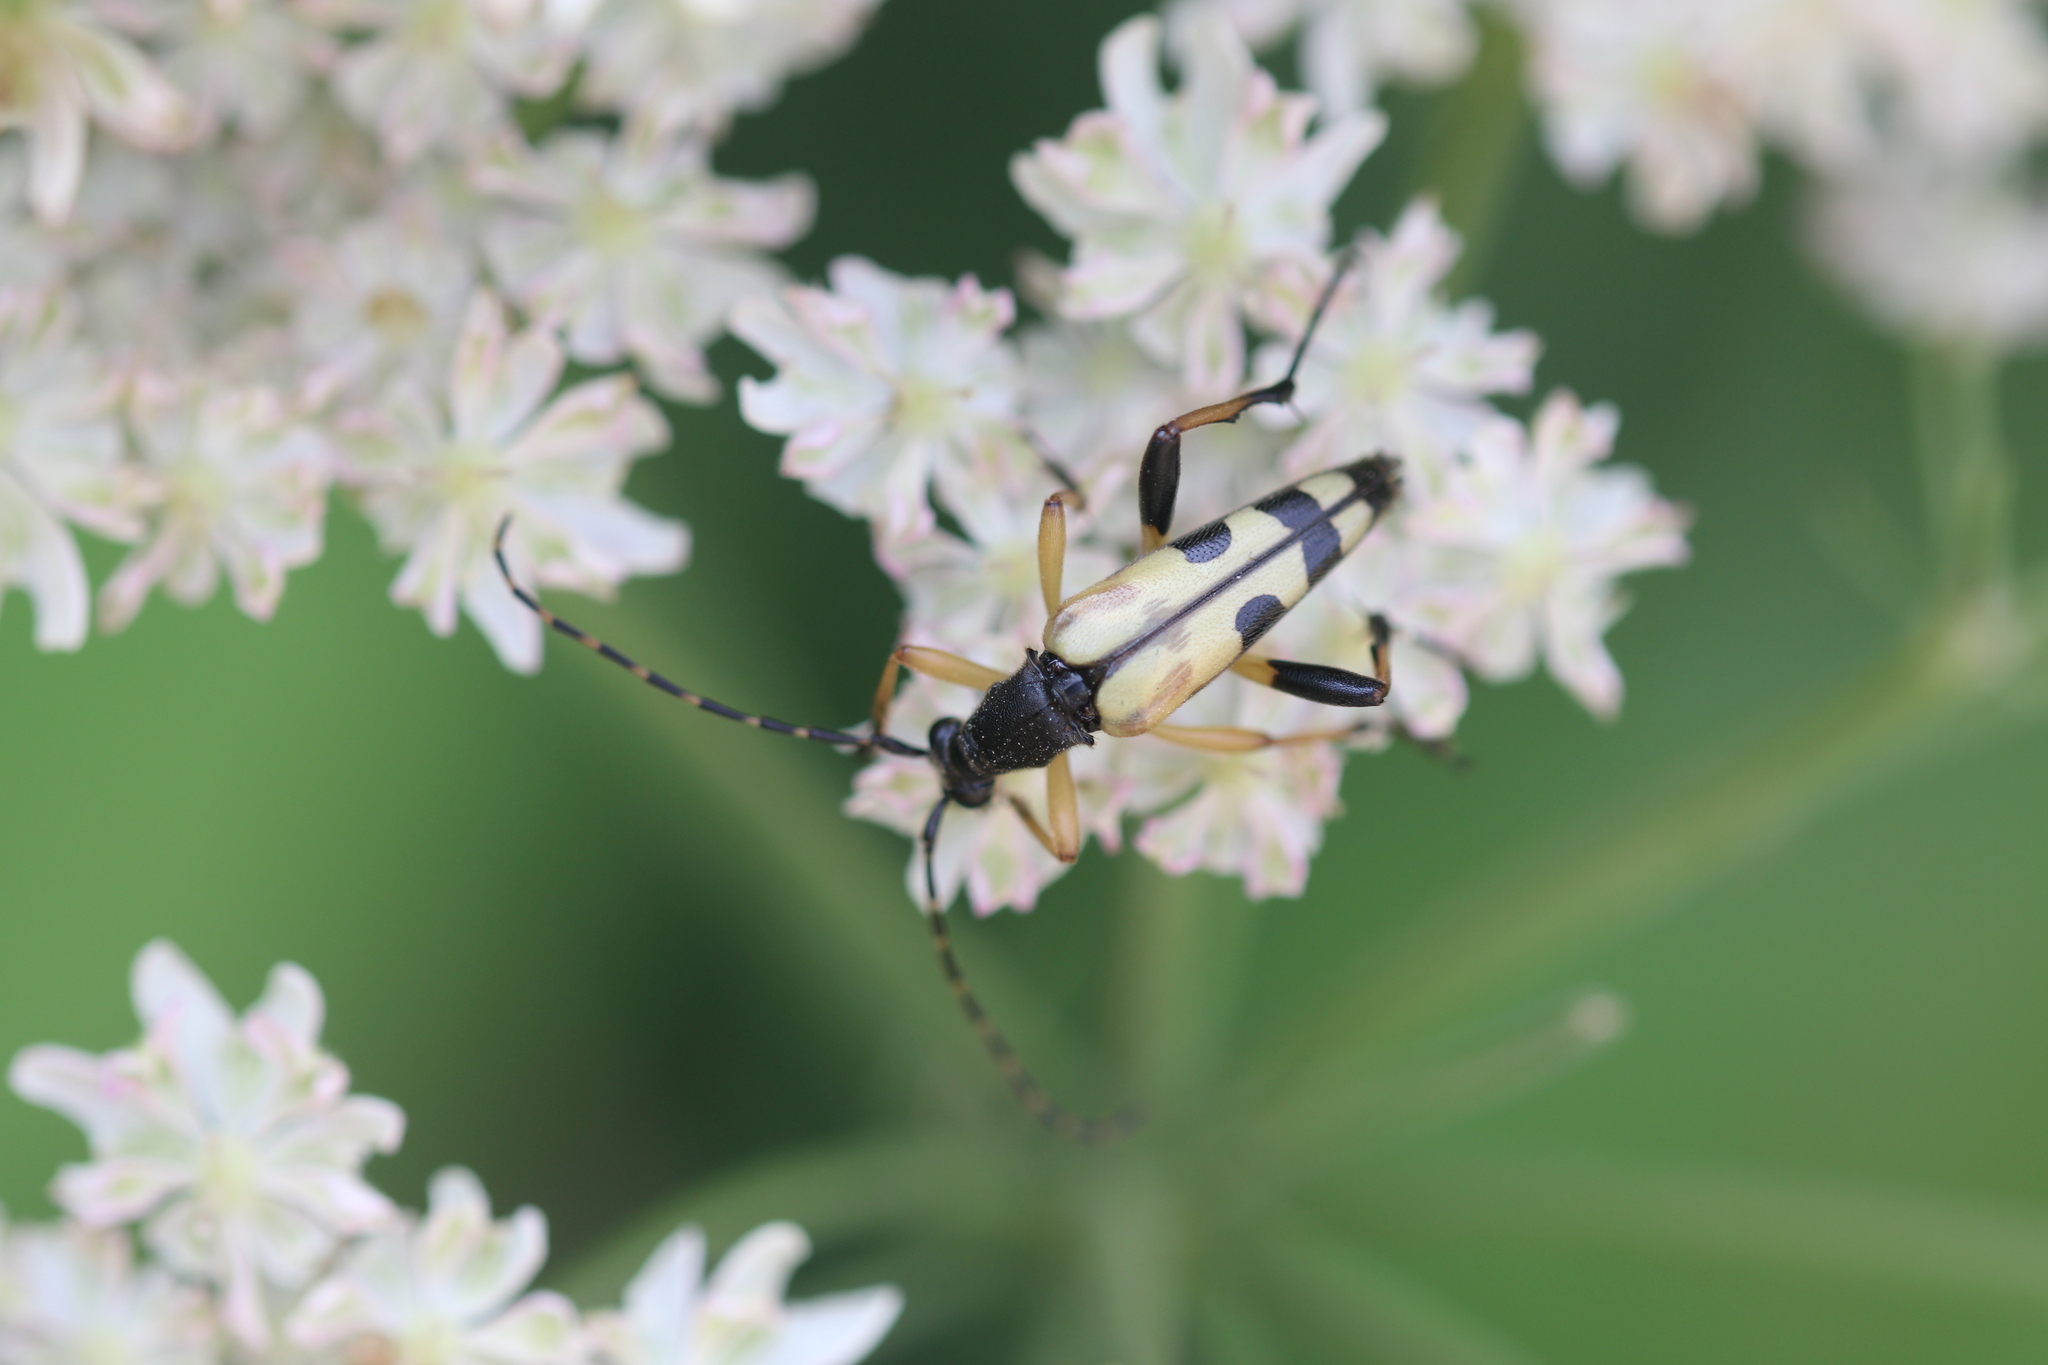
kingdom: Animalia
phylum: Arthropoda
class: Insecta
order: Coleoptera
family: Cerambycidae
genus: Rutpela
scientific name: Rutpela maculata
